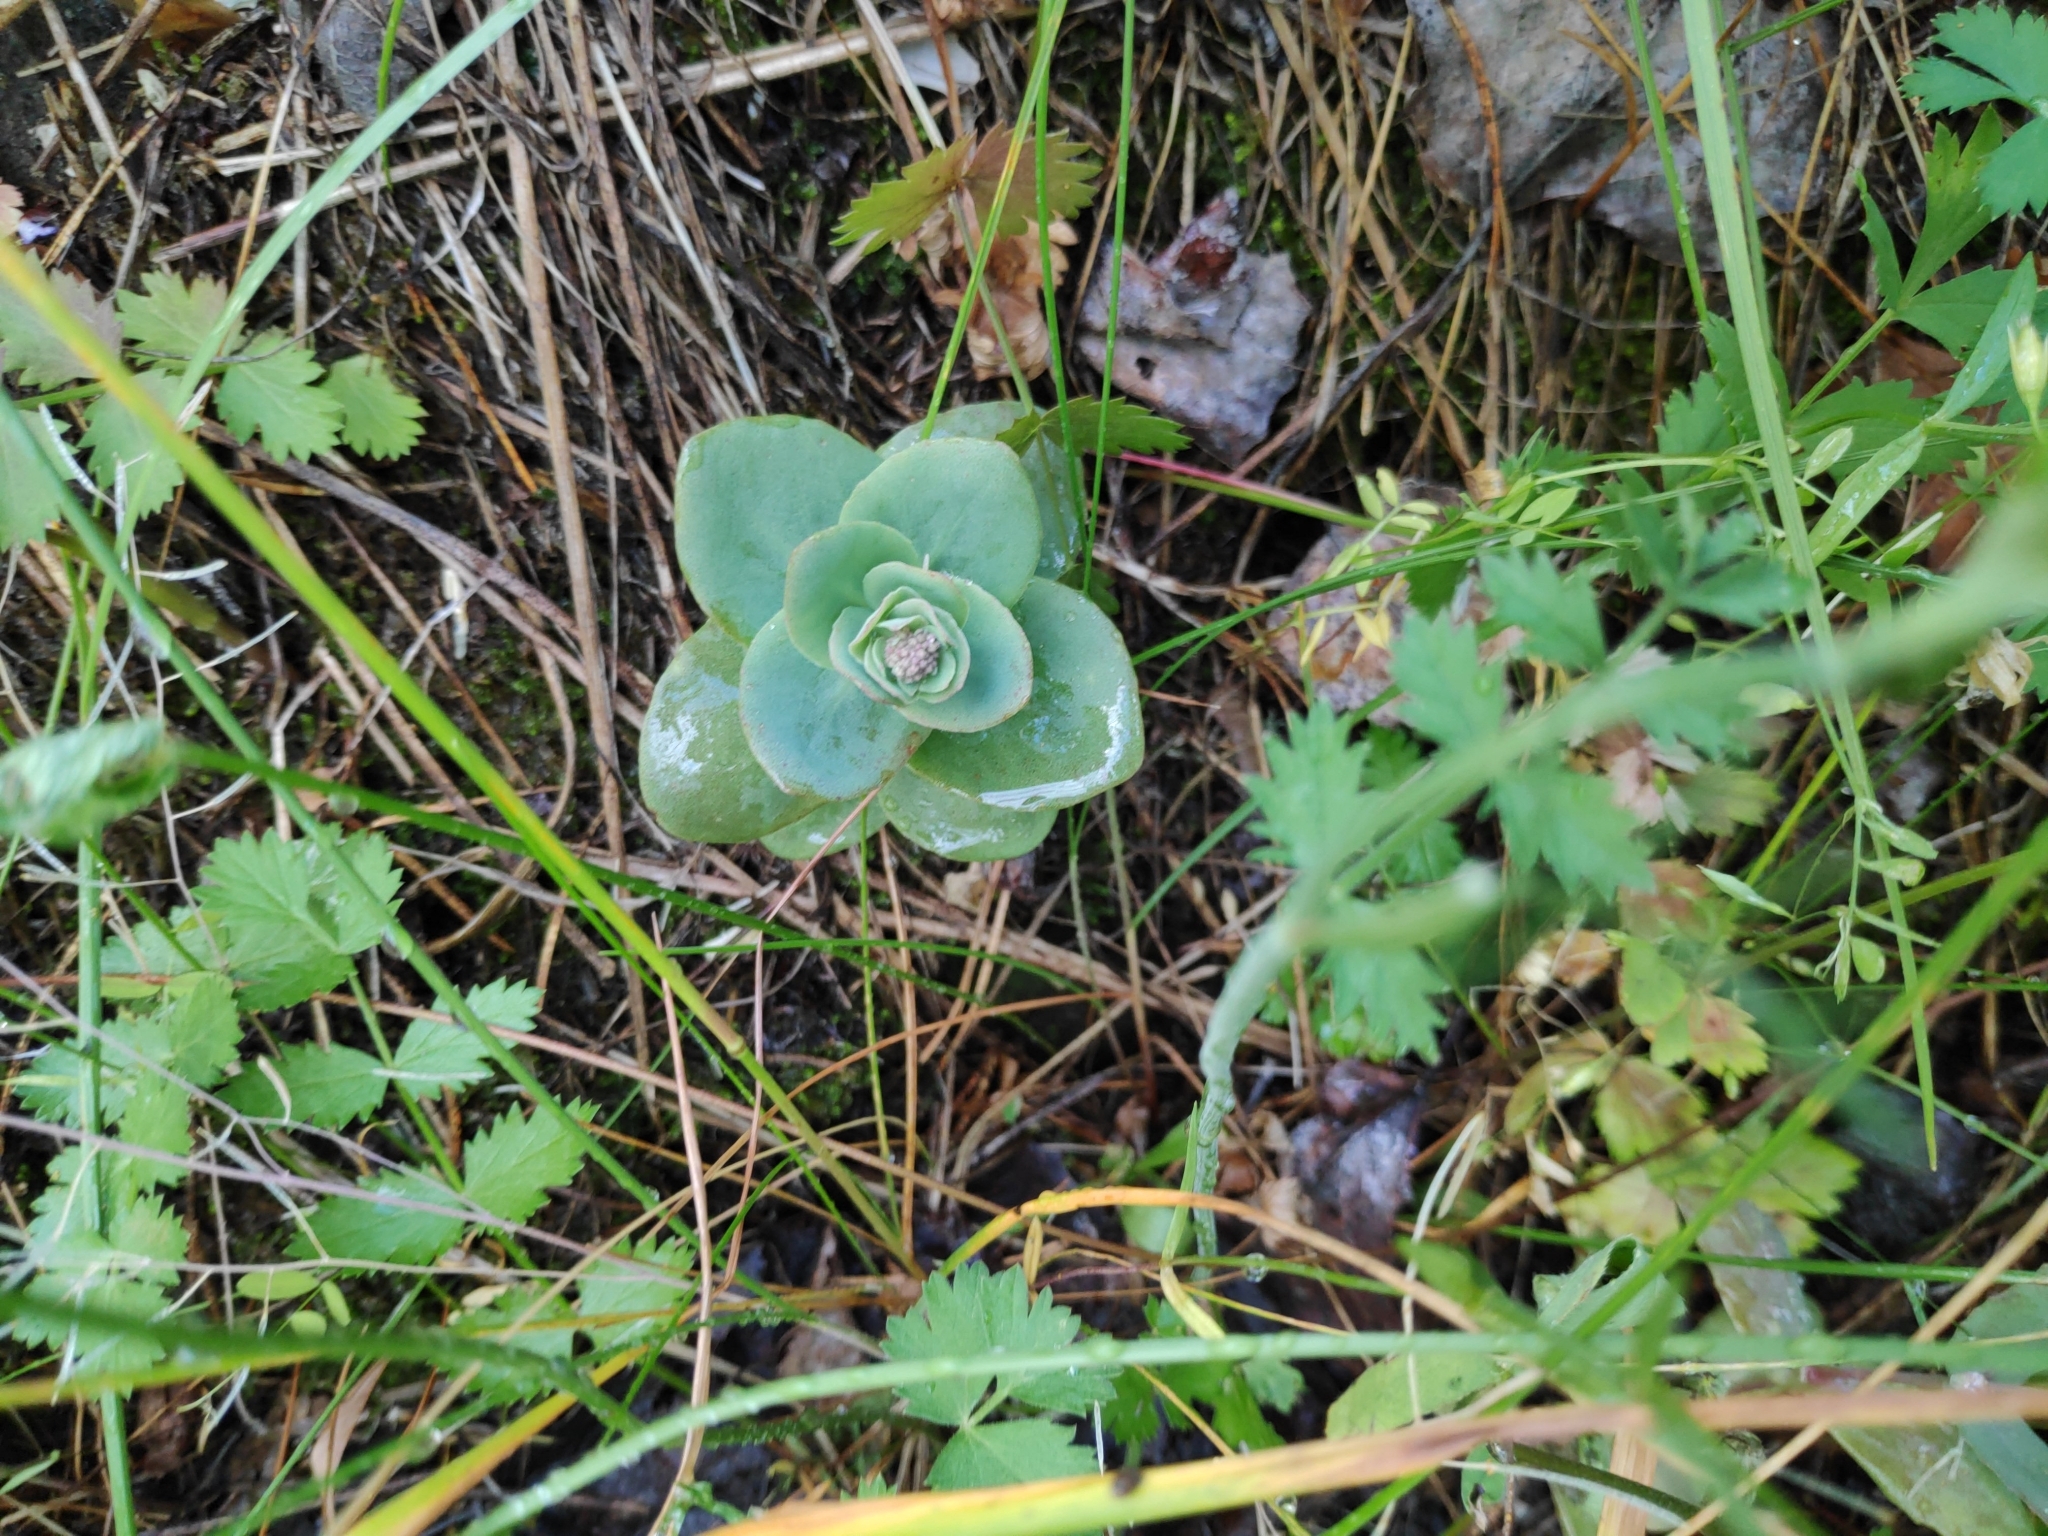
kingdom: Plantae
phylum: Tracheophyta
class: Magnoliopsida
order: Saxifragales
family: Crassulaceae
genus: Hylotelephium
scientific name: Hylotelephium maximum
